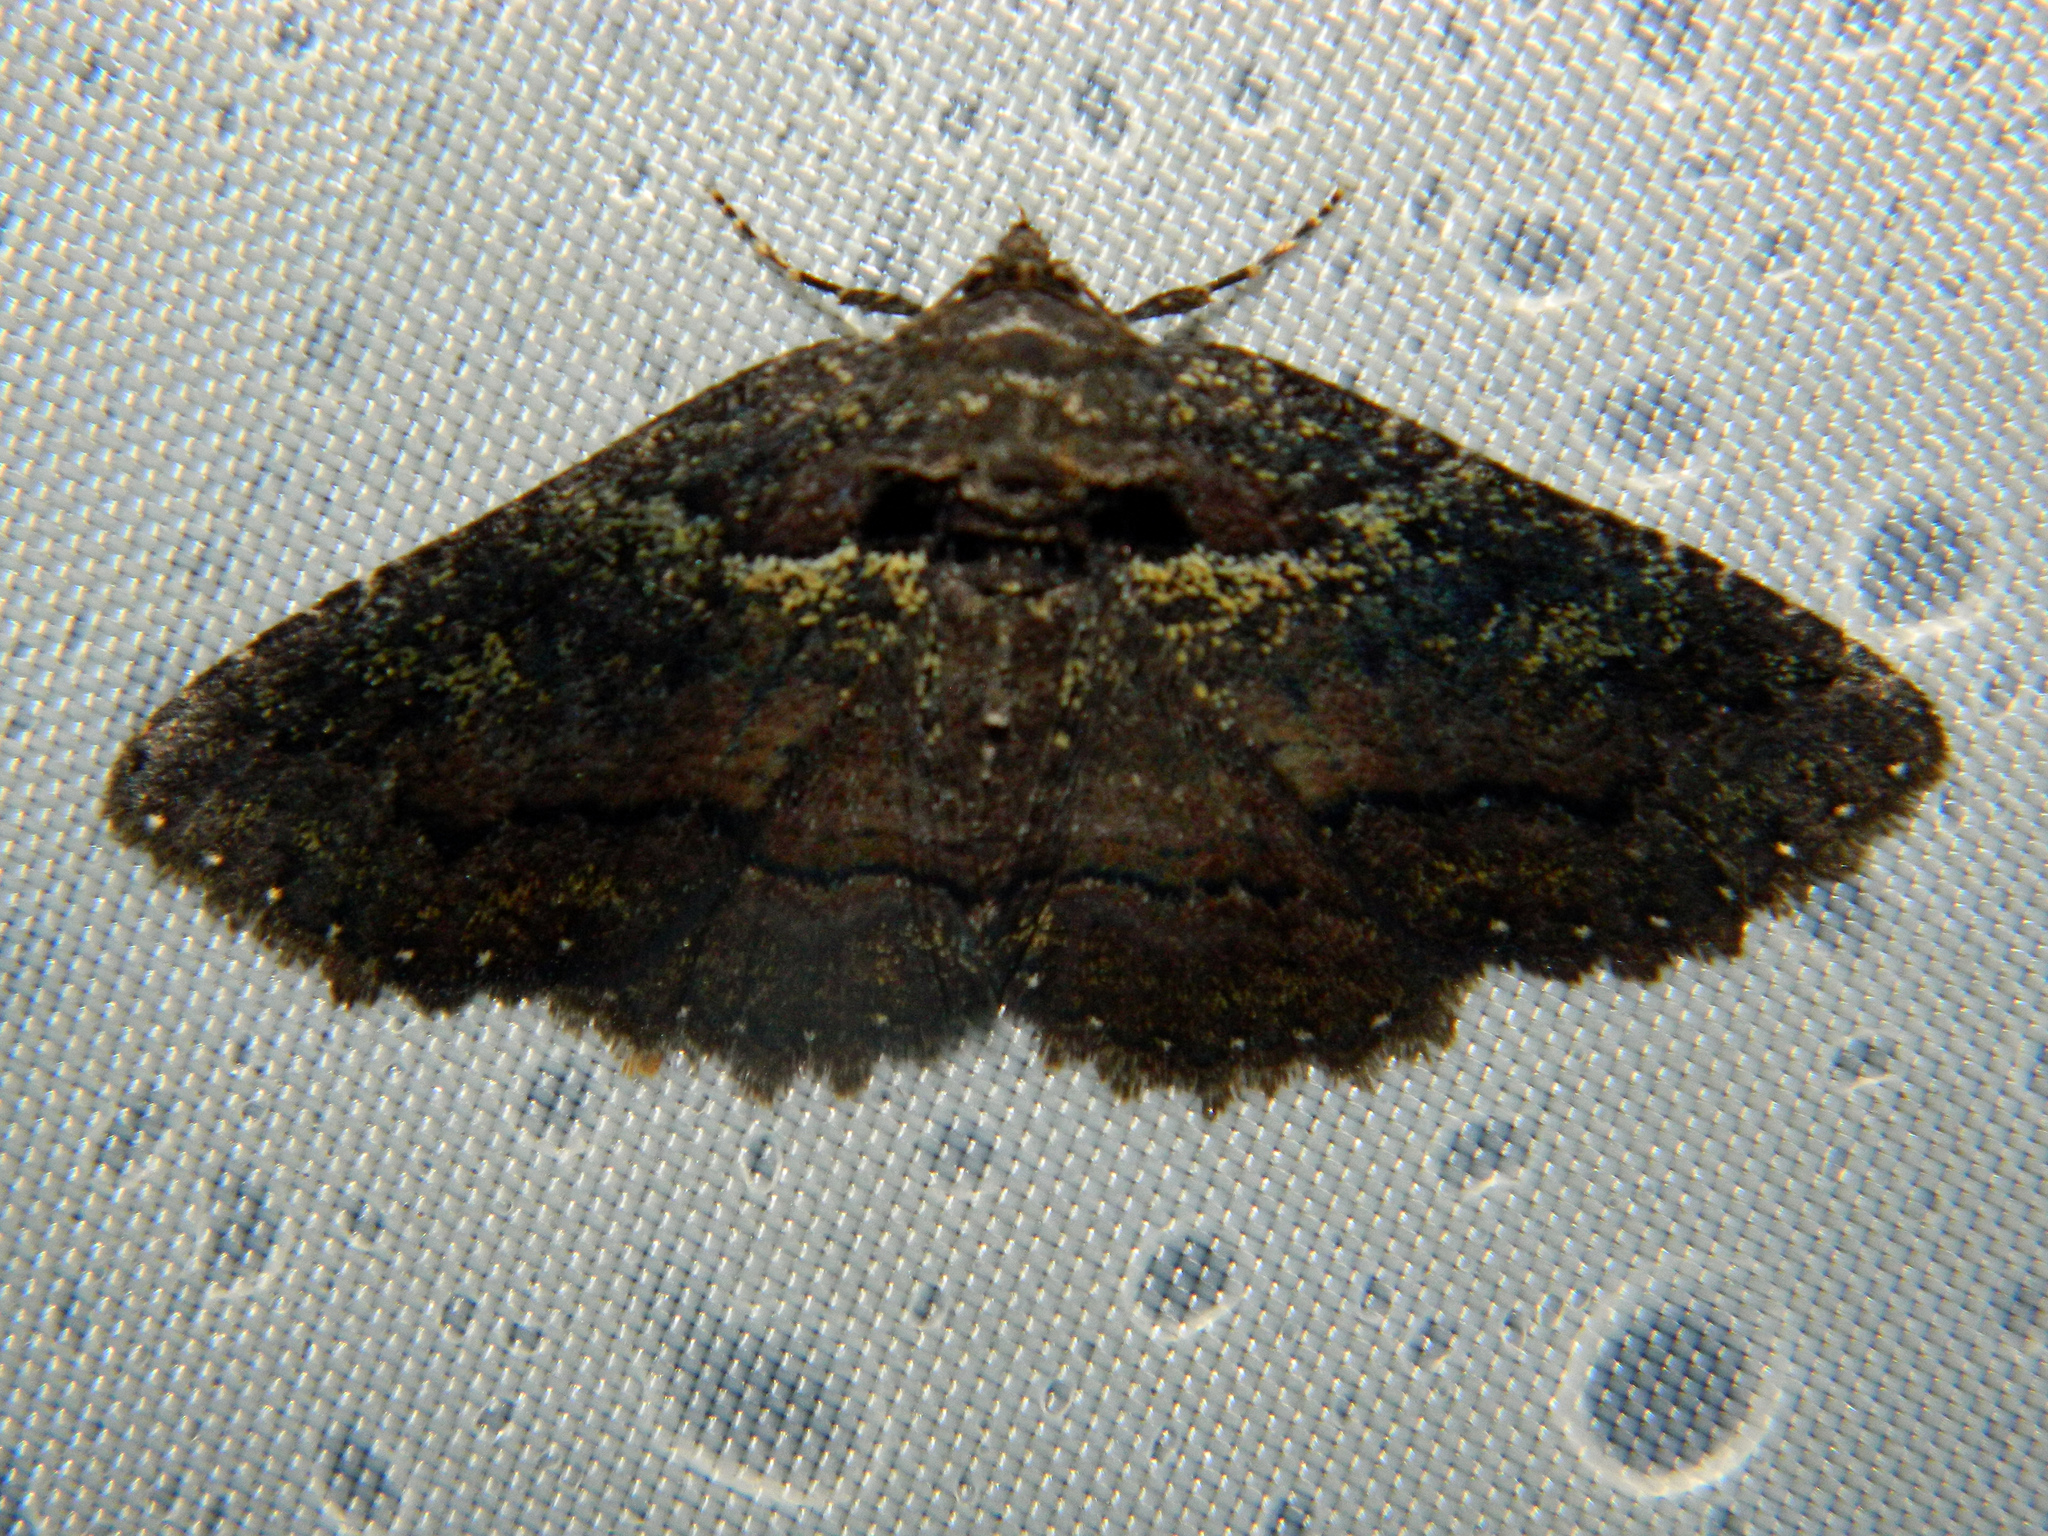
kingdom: Animalia
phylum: Arthropoda
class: Insecta
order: Lepidoptera
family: Erebidae
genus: Zale
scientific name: Zale aeruginosa
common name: Green-dusted zale moth
